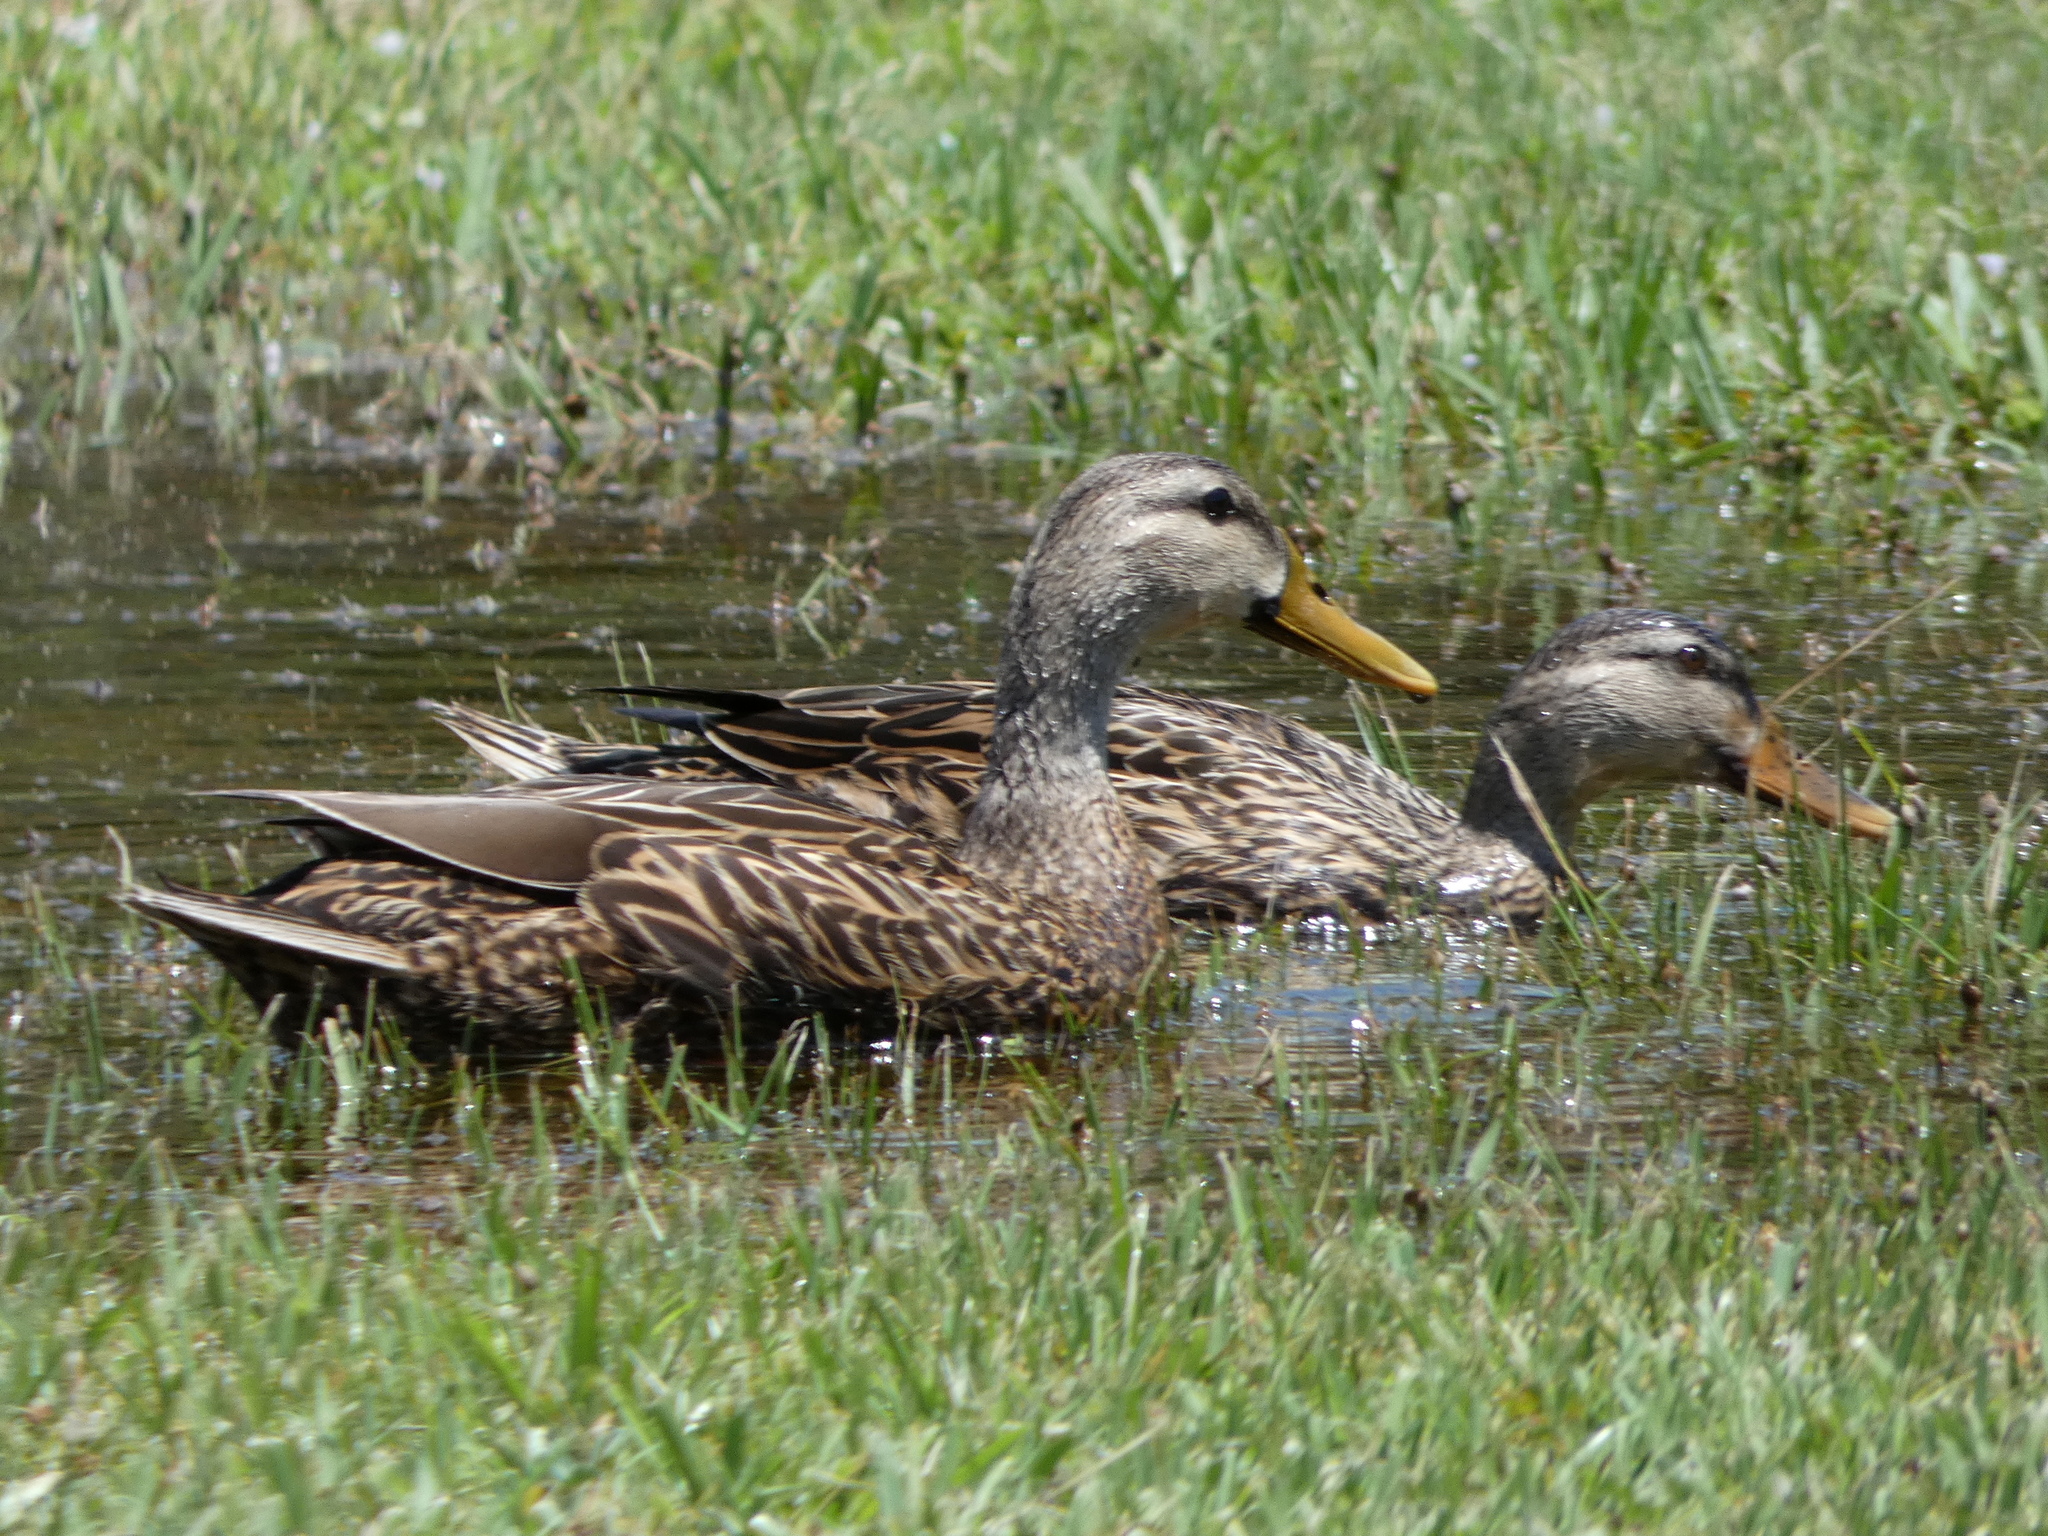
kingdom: Animalia
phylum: Chordata
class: Aves
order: Anseriformes
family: Anatidae
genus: Anas
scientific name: Anas
